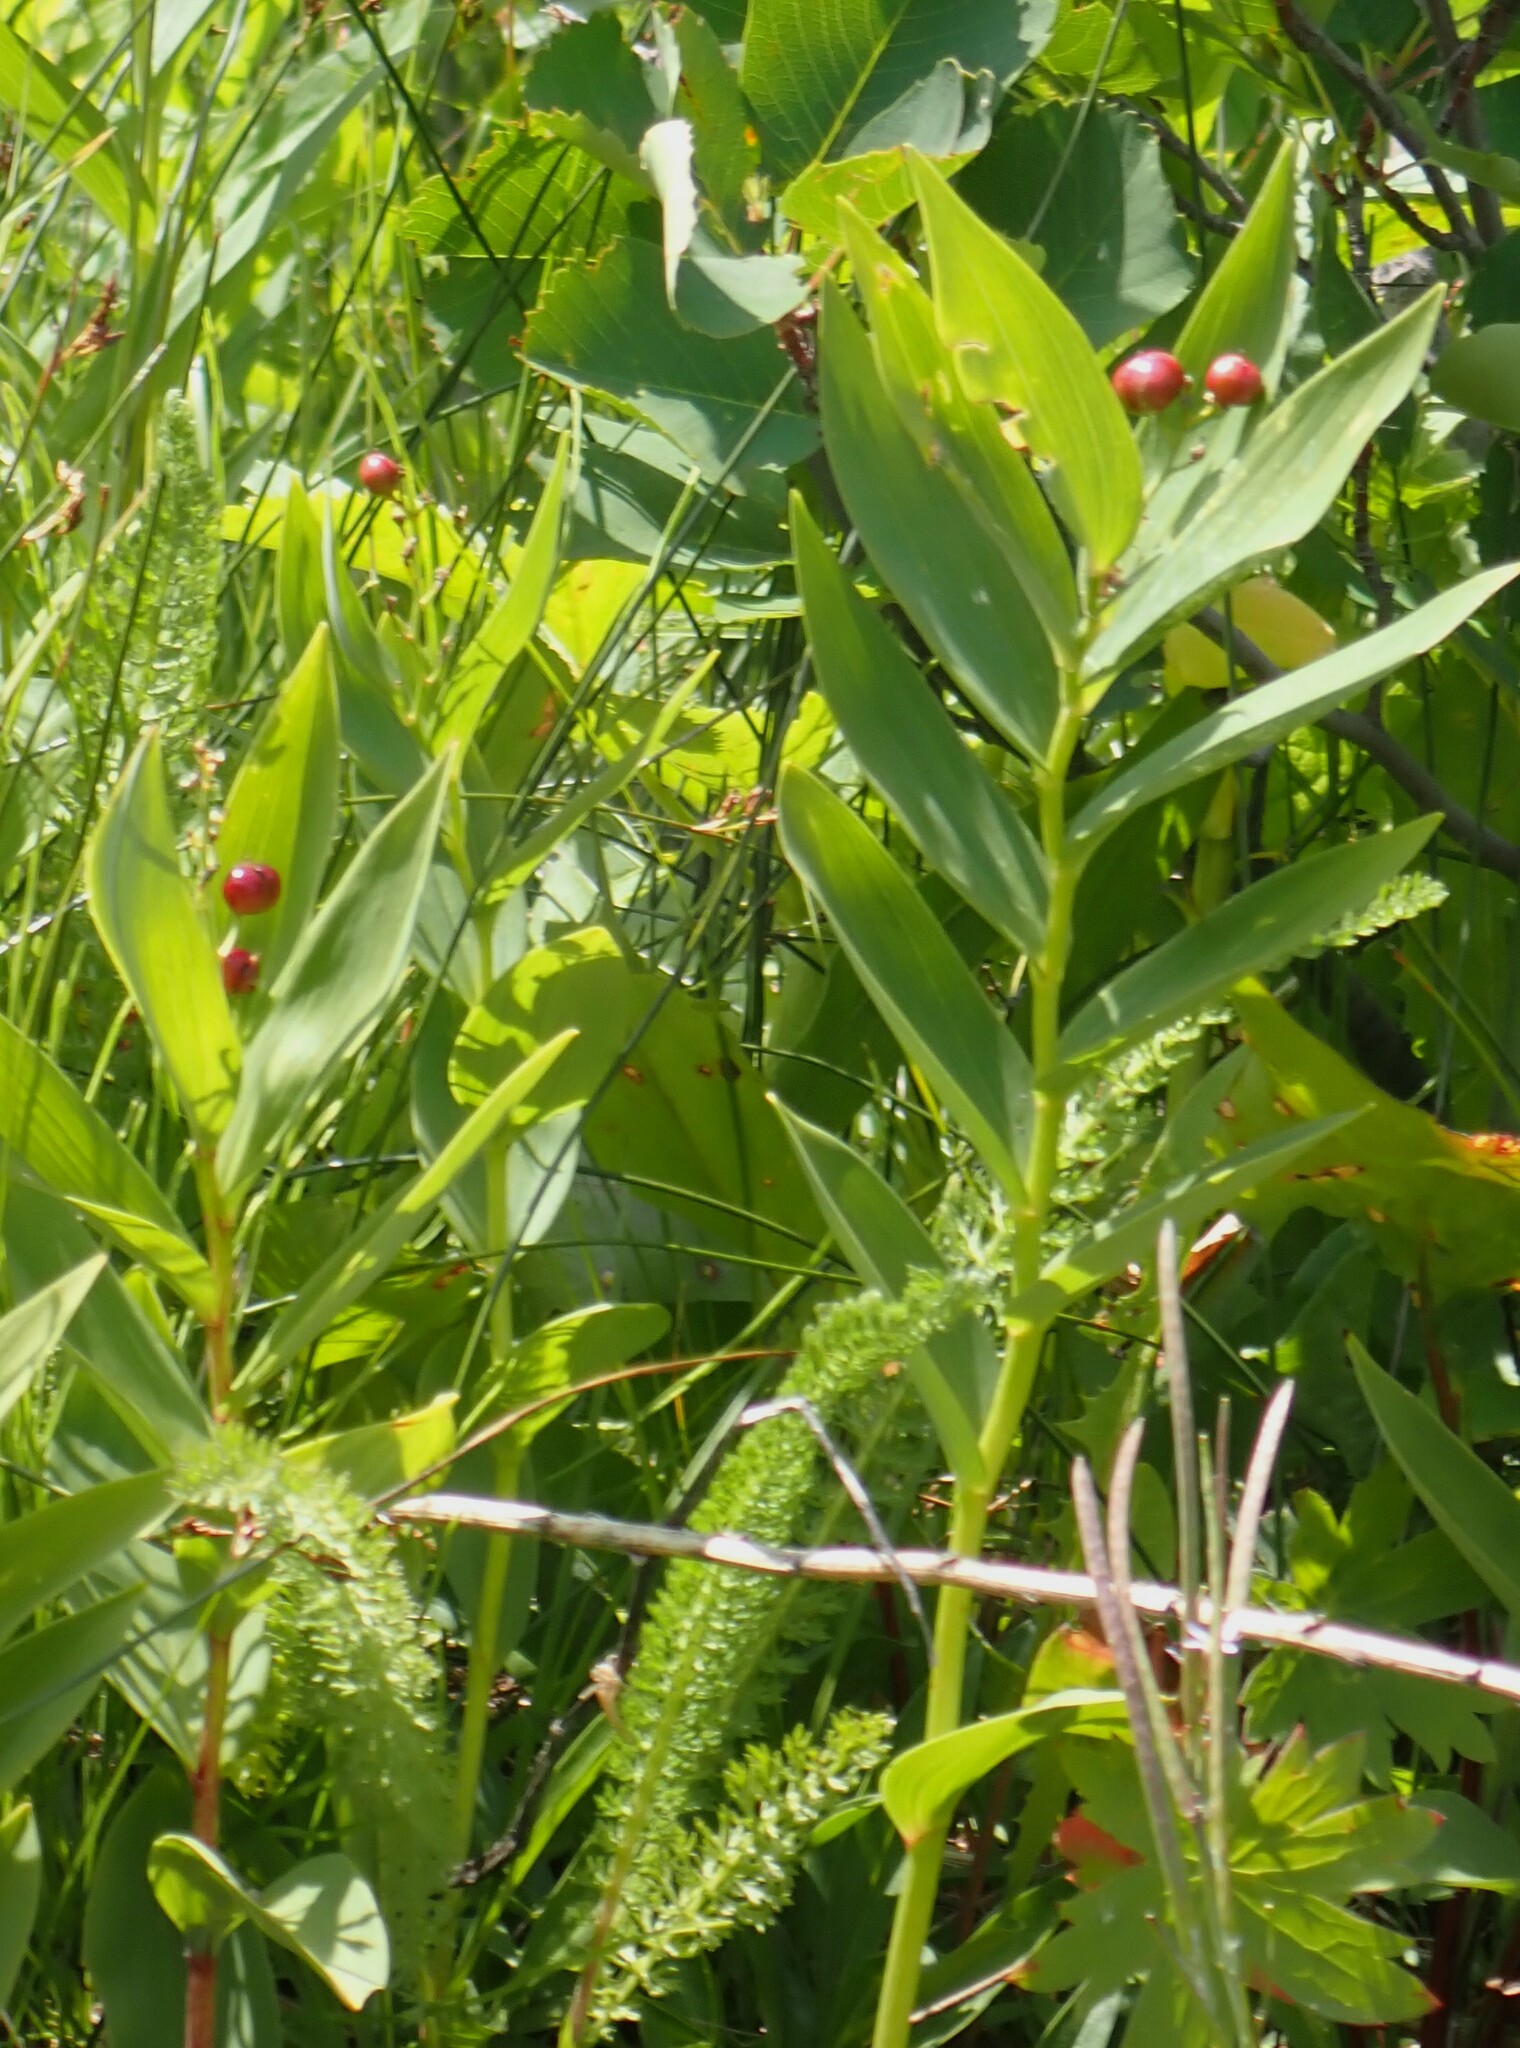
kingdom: Plantae
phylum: Tracheophyta
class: Liliopsida
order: Asparagales
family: Asparagaceae
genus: Maianthemum
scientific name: Maianthemum stellatum
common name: Little false solomon's seal
